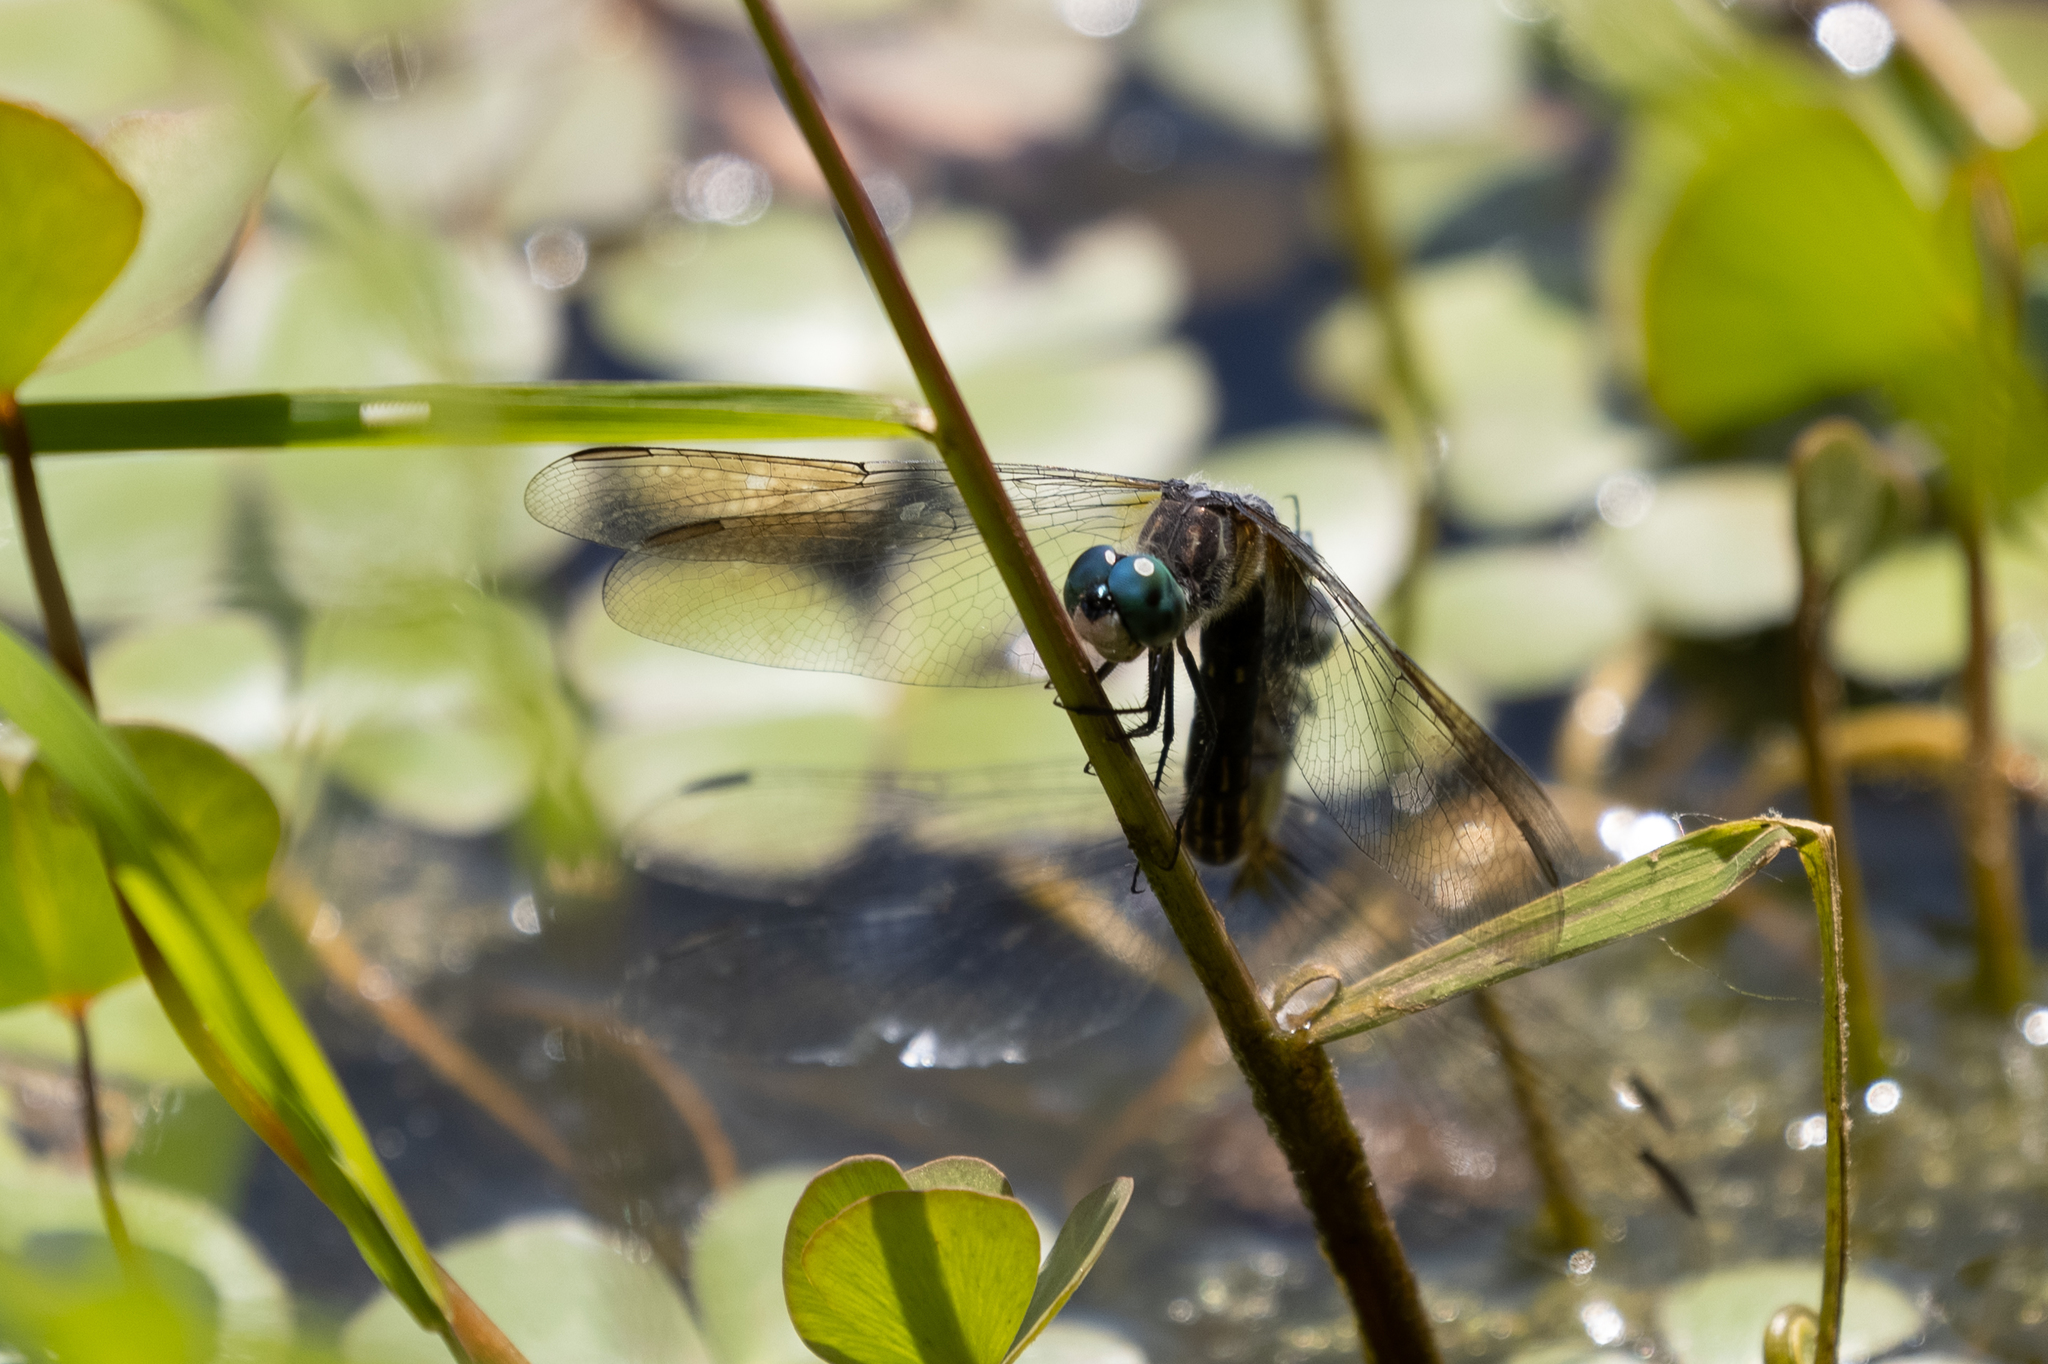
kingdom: Animalia
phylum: Arthropoda
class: Insecta
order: Odonata
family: Libellulidae
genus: Pachydiplax
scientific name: Pachydiplax longipennis
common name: Blue dasher
